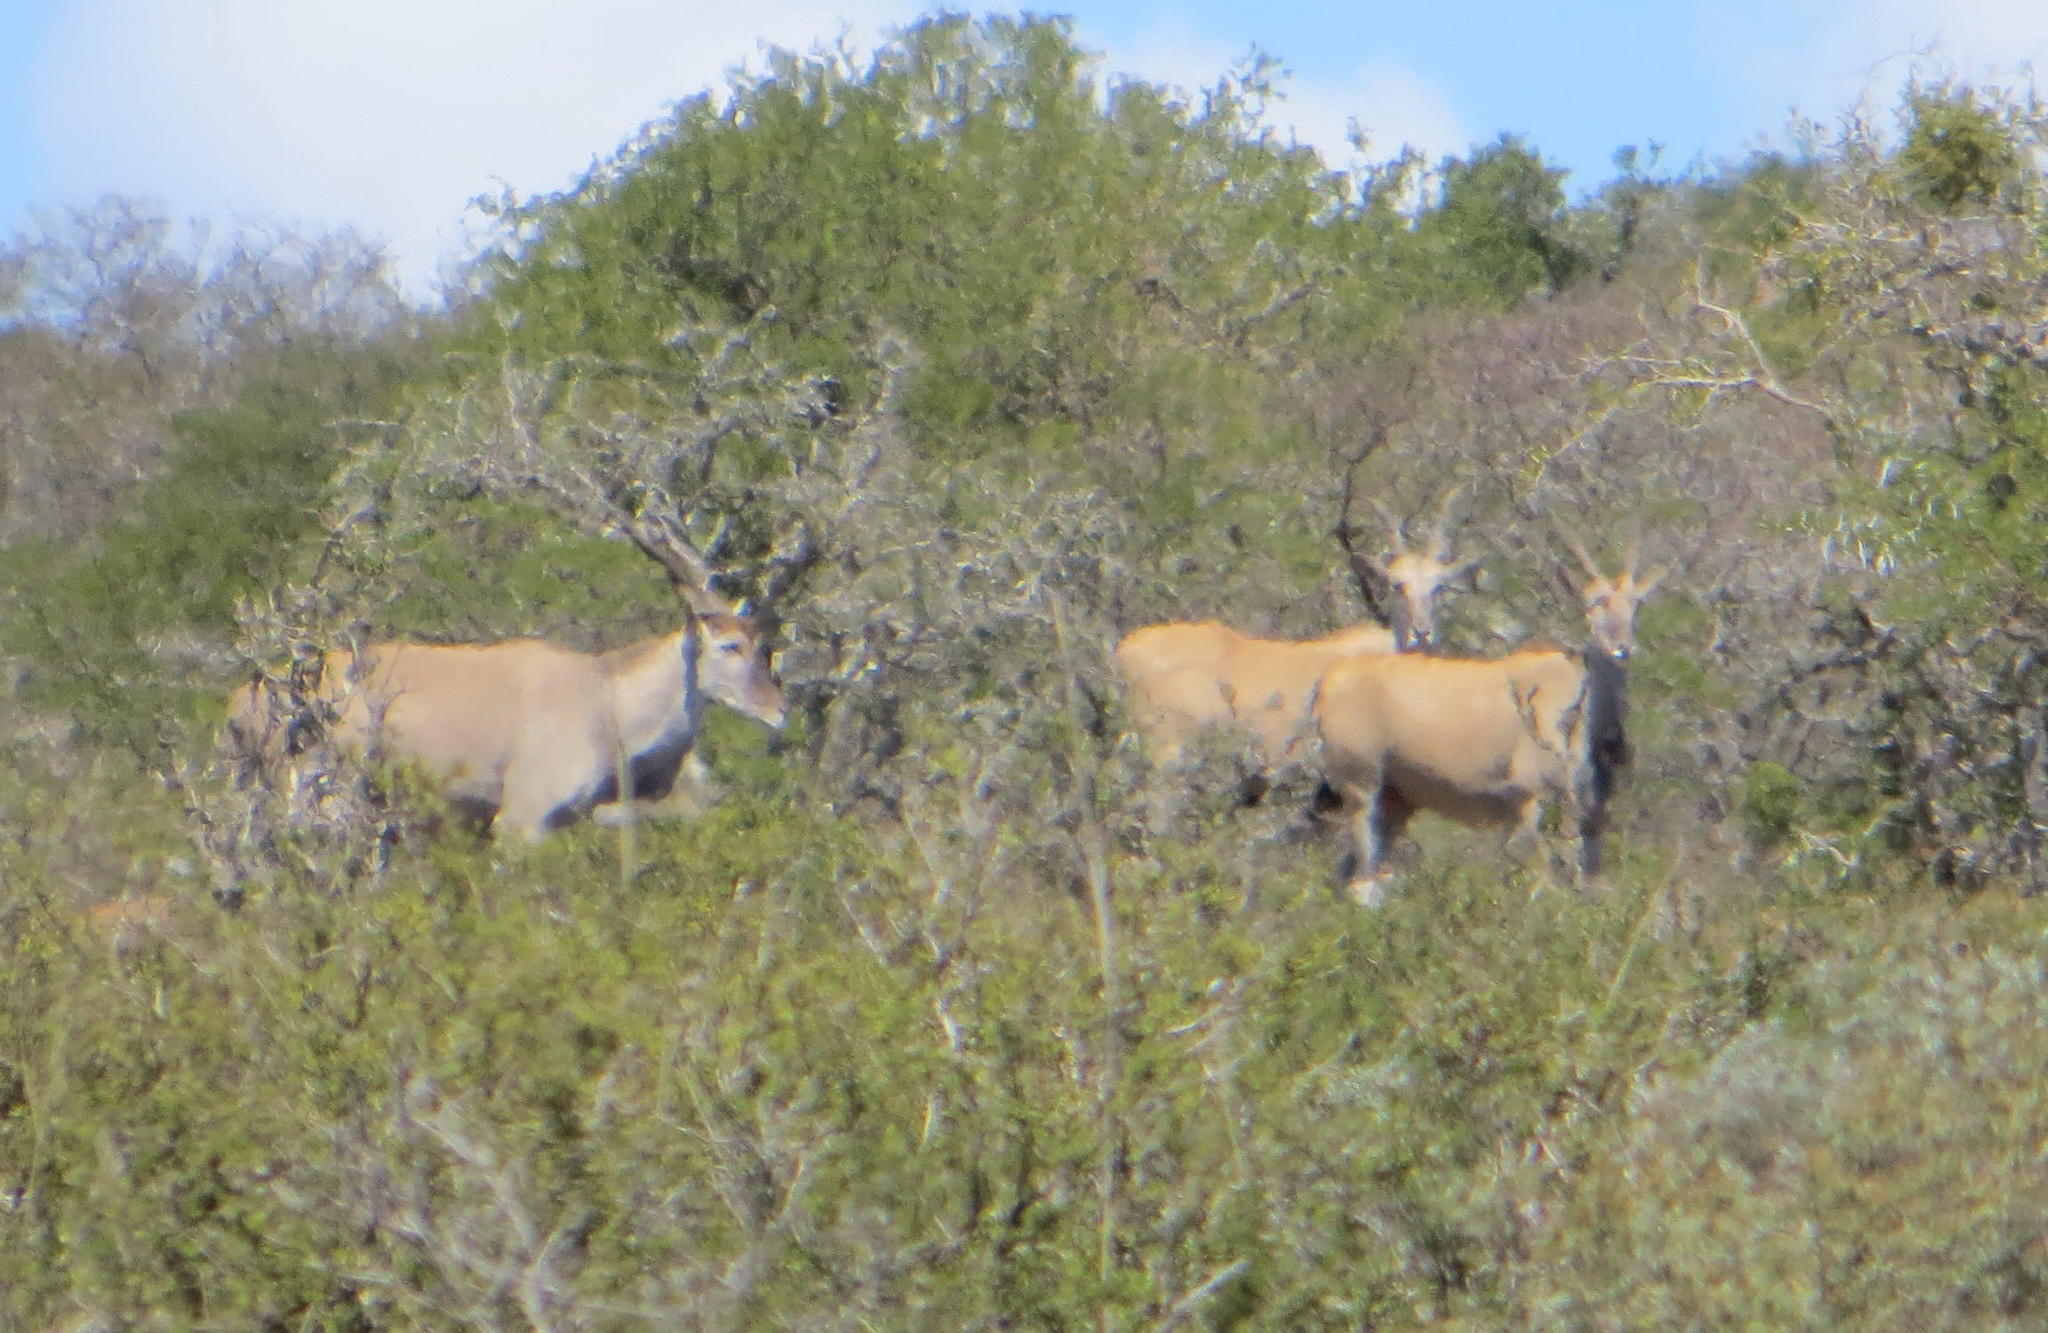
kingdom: Animalia
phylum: Chordata
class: Mammalia
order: Artiodactyla
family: Bovidae
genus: Taurotragus
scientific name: Taurotragus oryx
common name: Common eland
